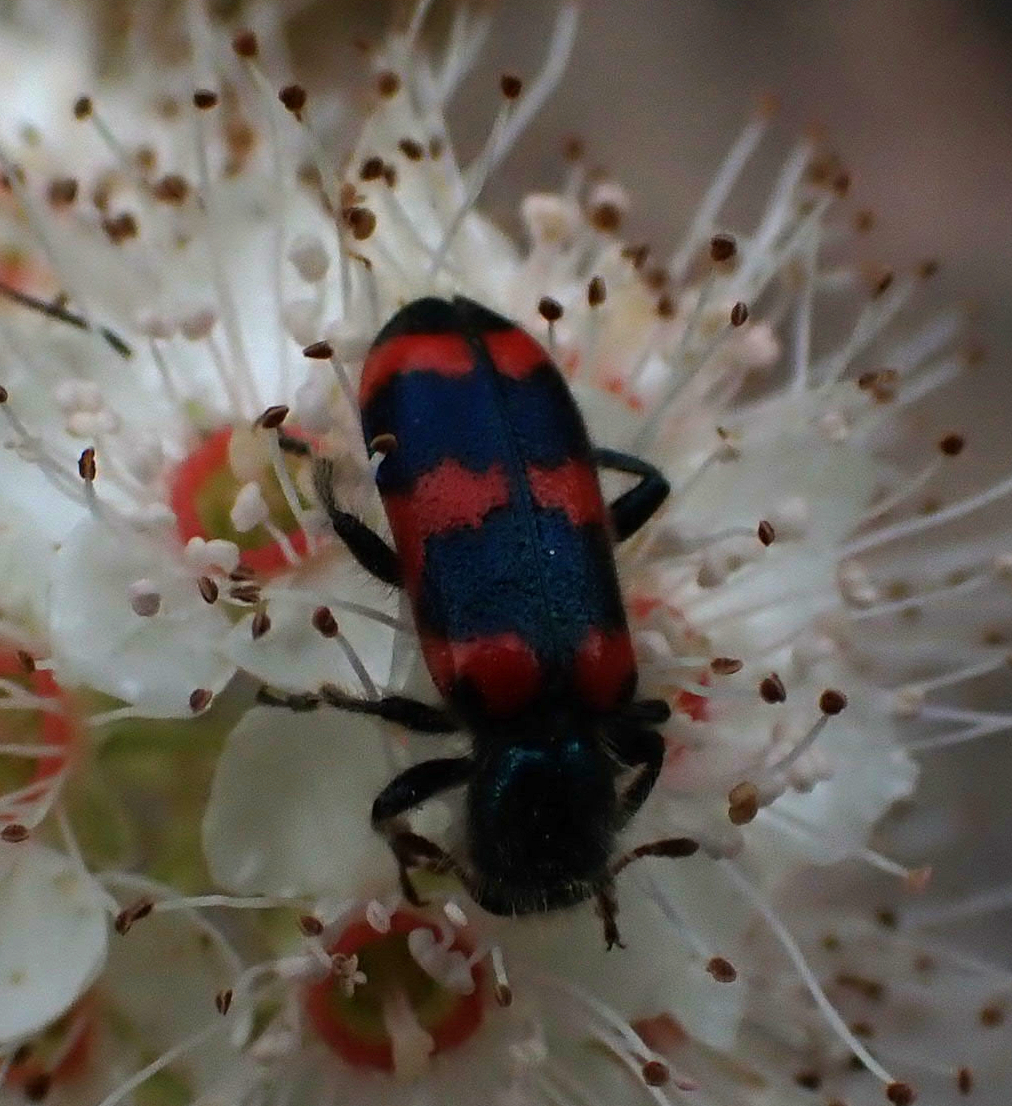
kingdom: Animalia
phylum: Arthropoda
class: Insecta
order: Coleoptera
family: Cleridae
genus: Trichodes
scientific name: Trichodes nutalli
